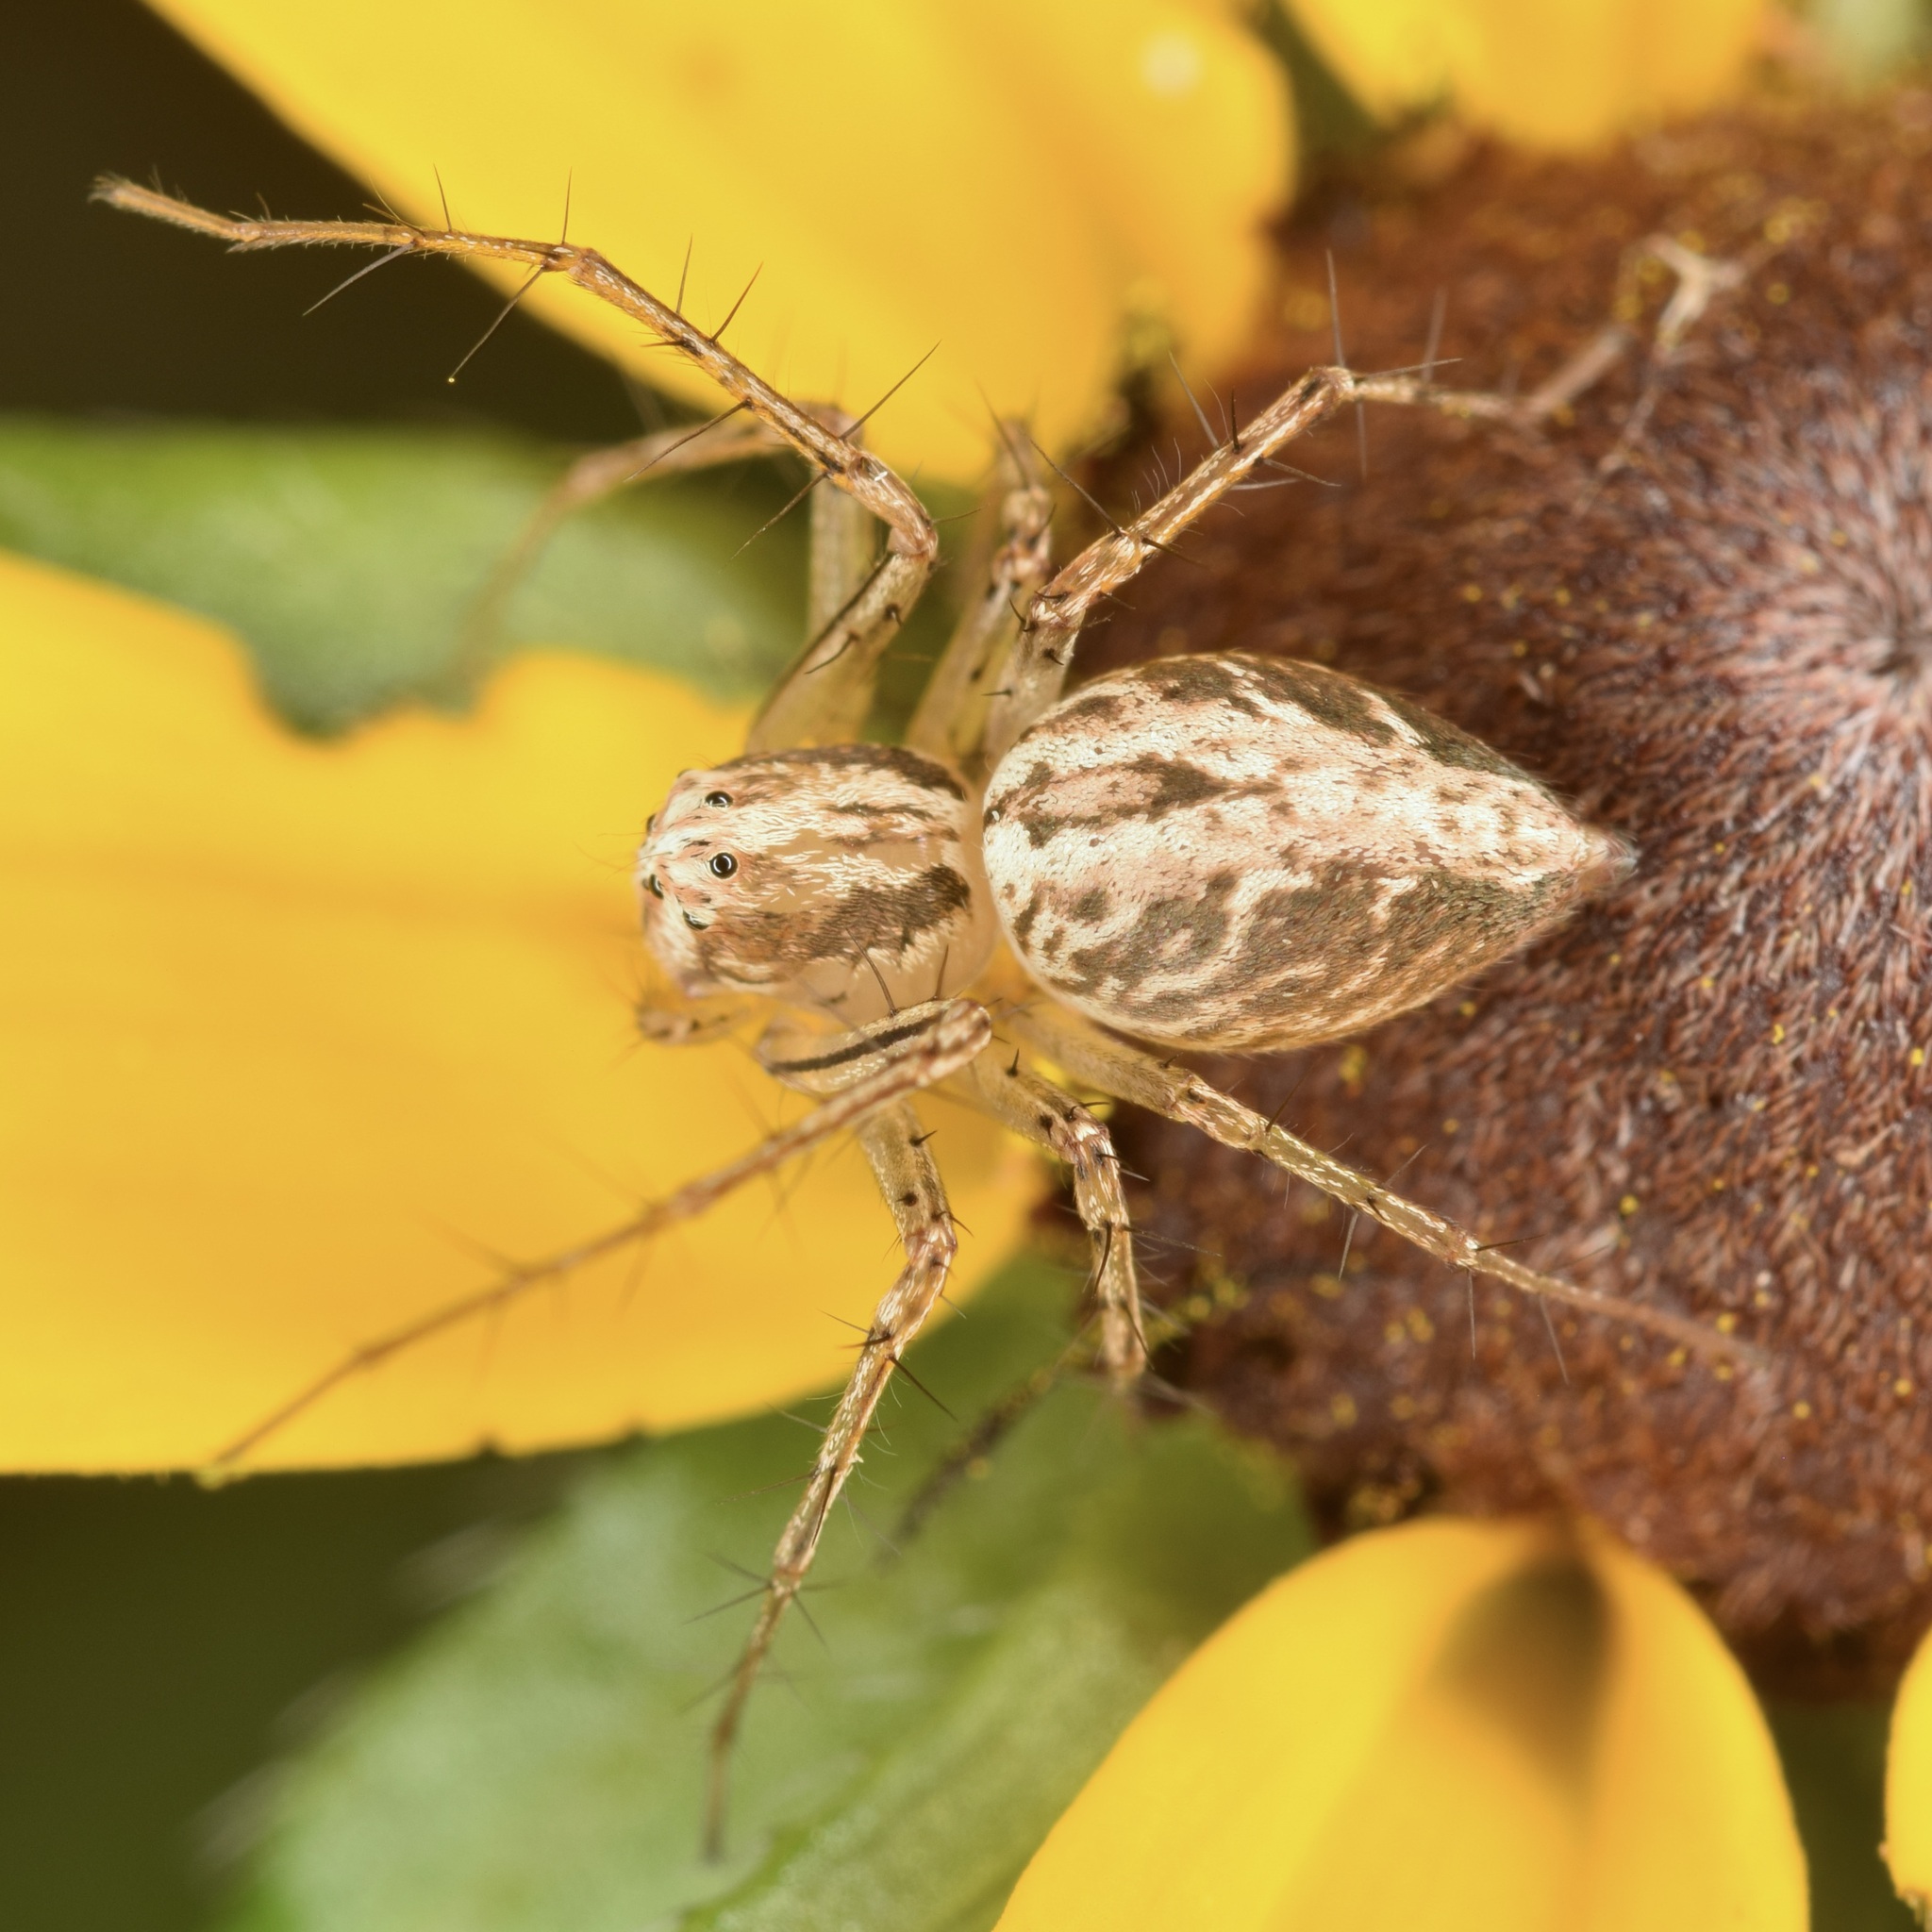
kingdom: Animalia
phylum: Arthropoda
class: Arachnida
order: Araneae
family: Oxyopidae
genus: Oxyopes
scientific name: Oxyopes aglossus
